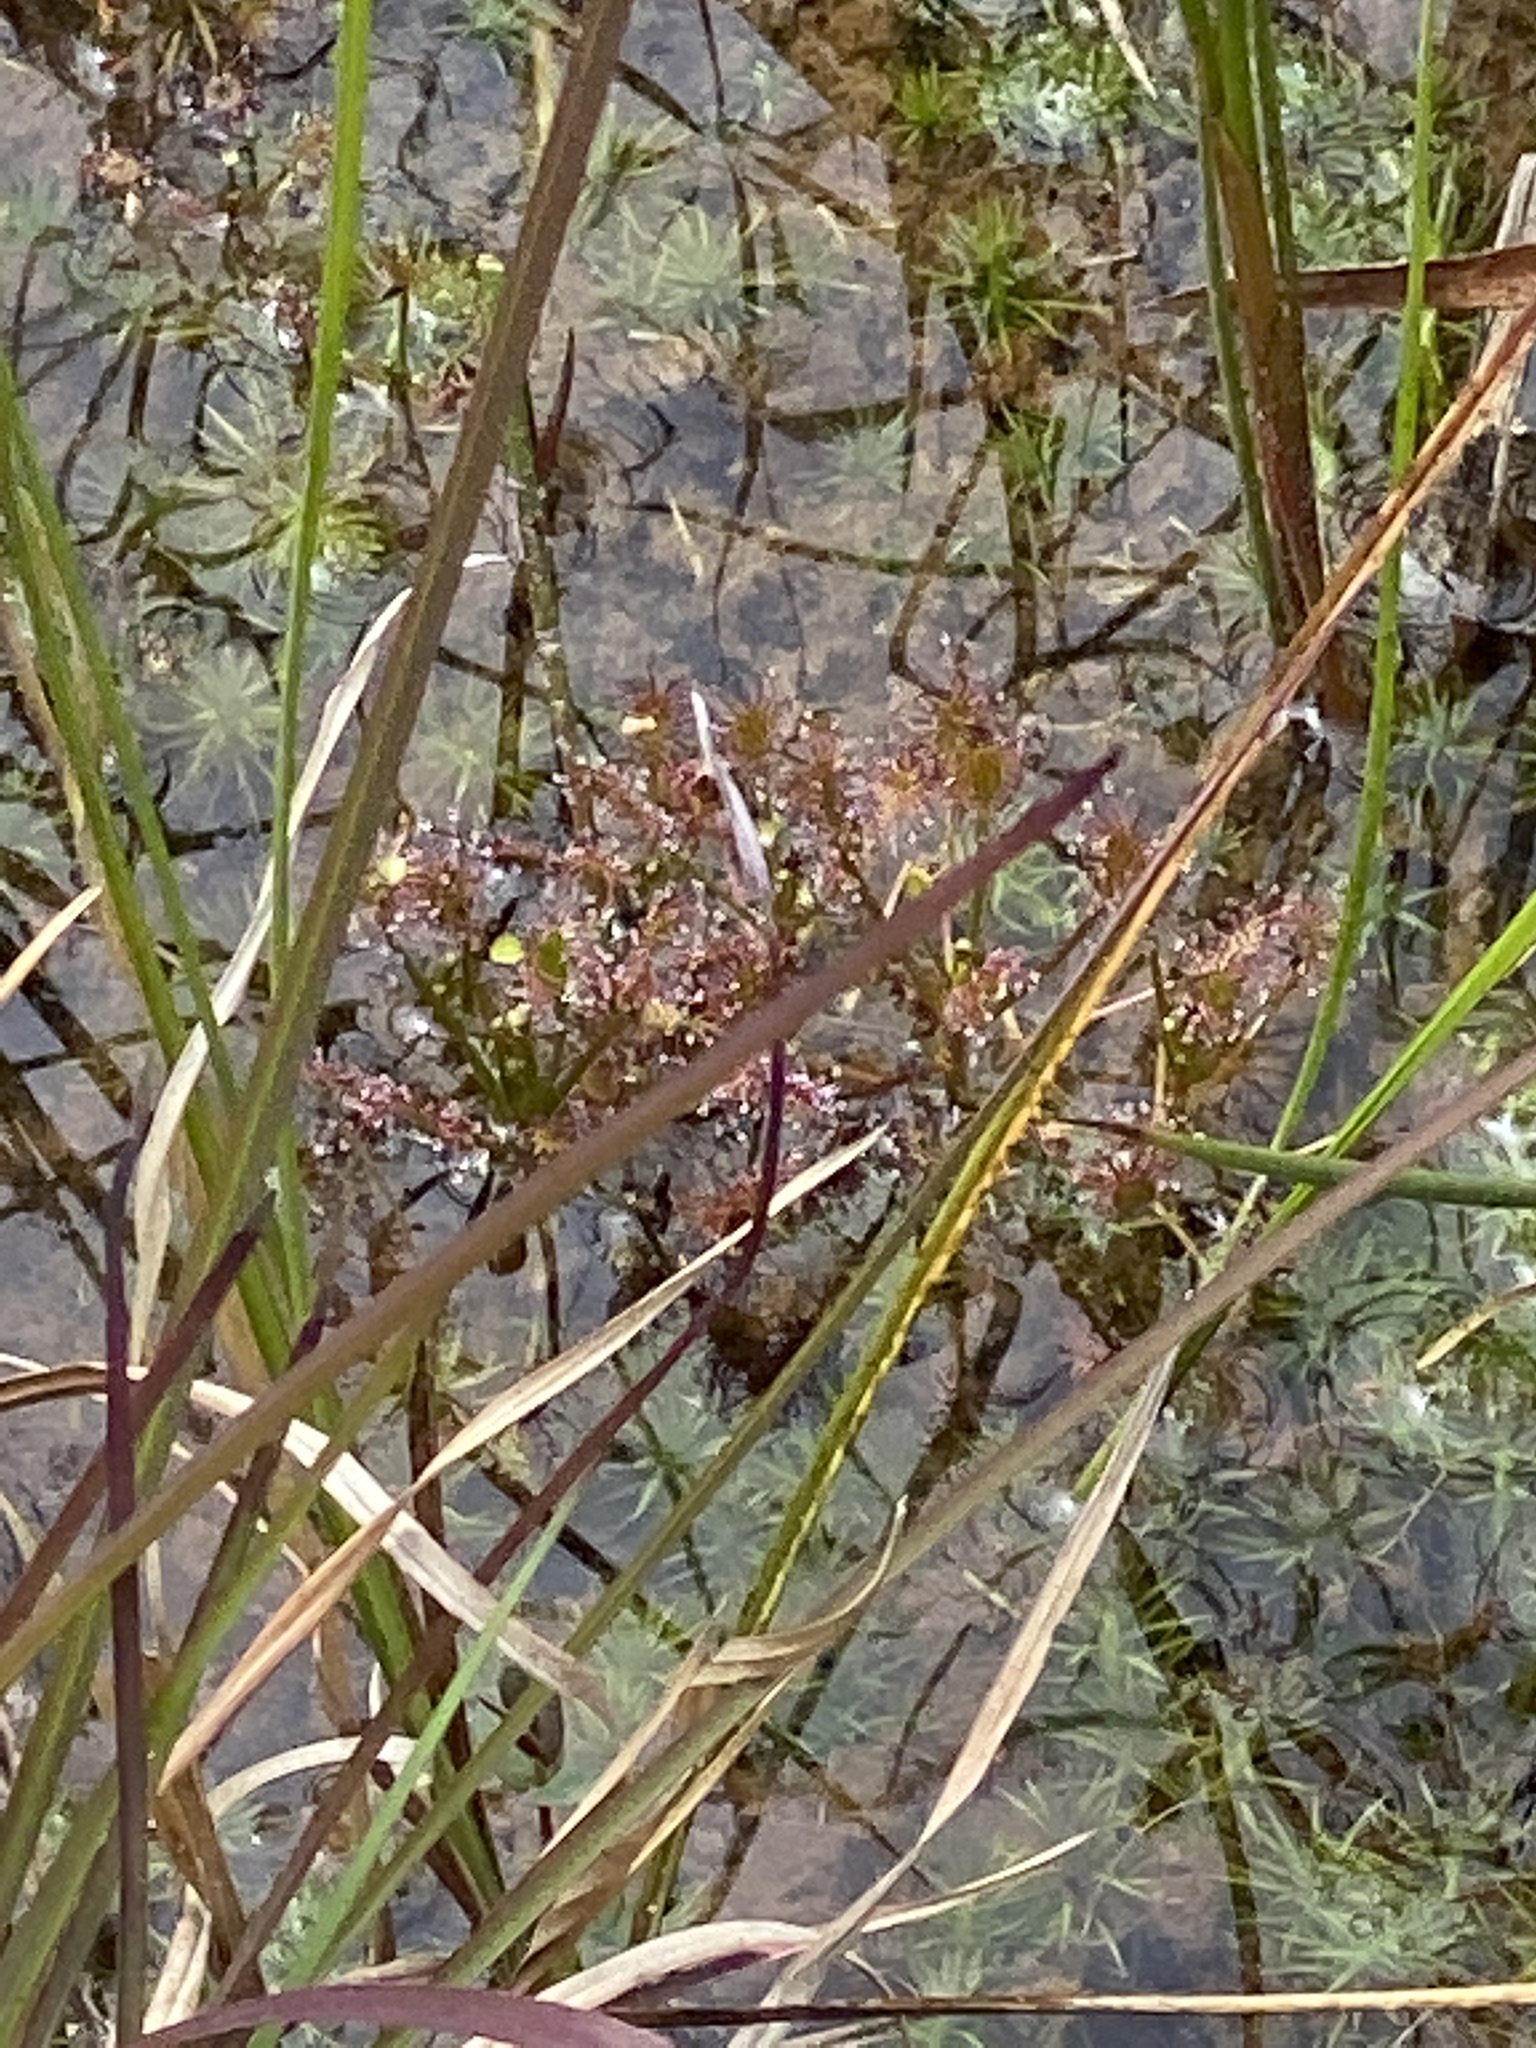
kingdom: Plantae
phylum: Tracheophyta
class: Magnoliopsida
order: Caryophyllales
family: Droseraceae
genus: Drosera
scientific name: Drosera intermedia
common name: Oblong-leaved sundew
